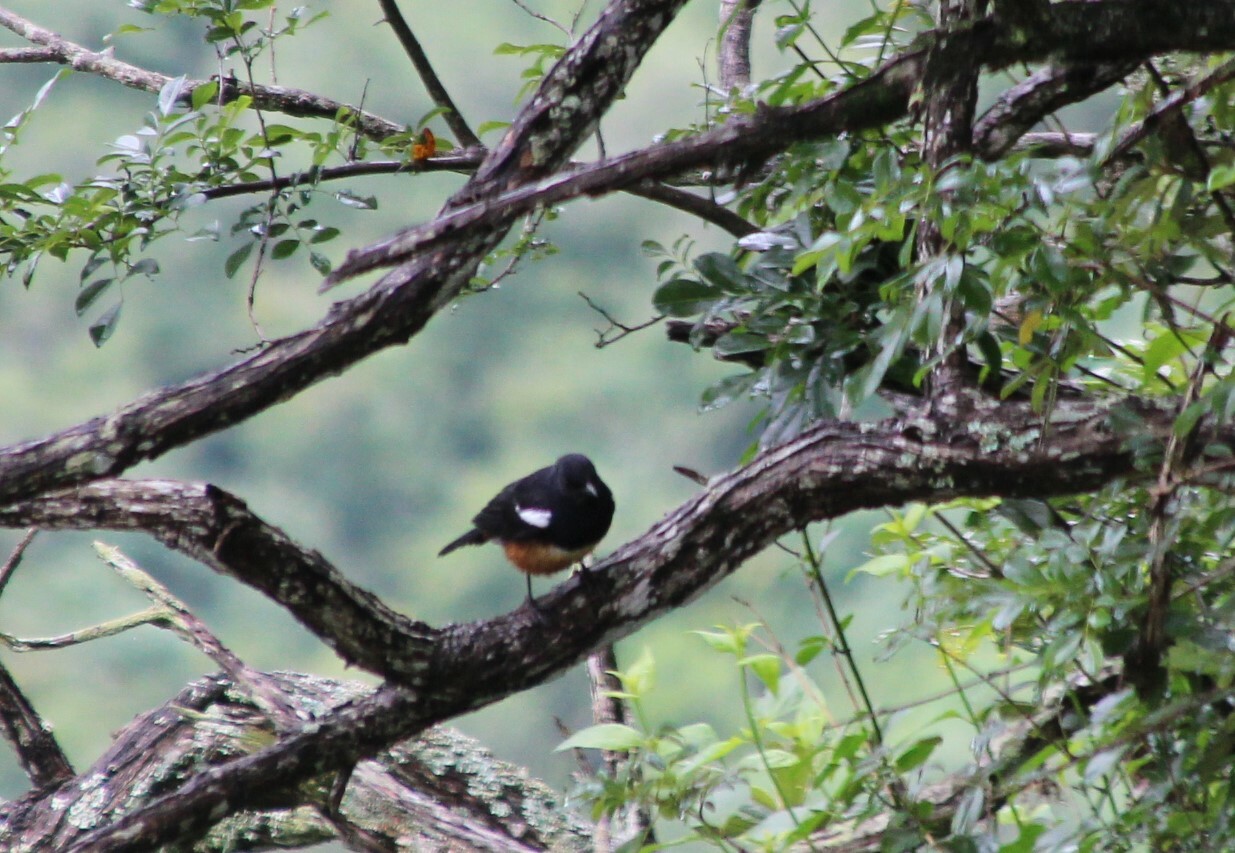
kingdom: Animalia
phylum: Chordata
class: Aves
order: Passeriformes
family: Muscicapidae
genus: Thamnolaea
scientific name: Thamnolaea cinnamomeiventris
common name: Mocking cliff chat
